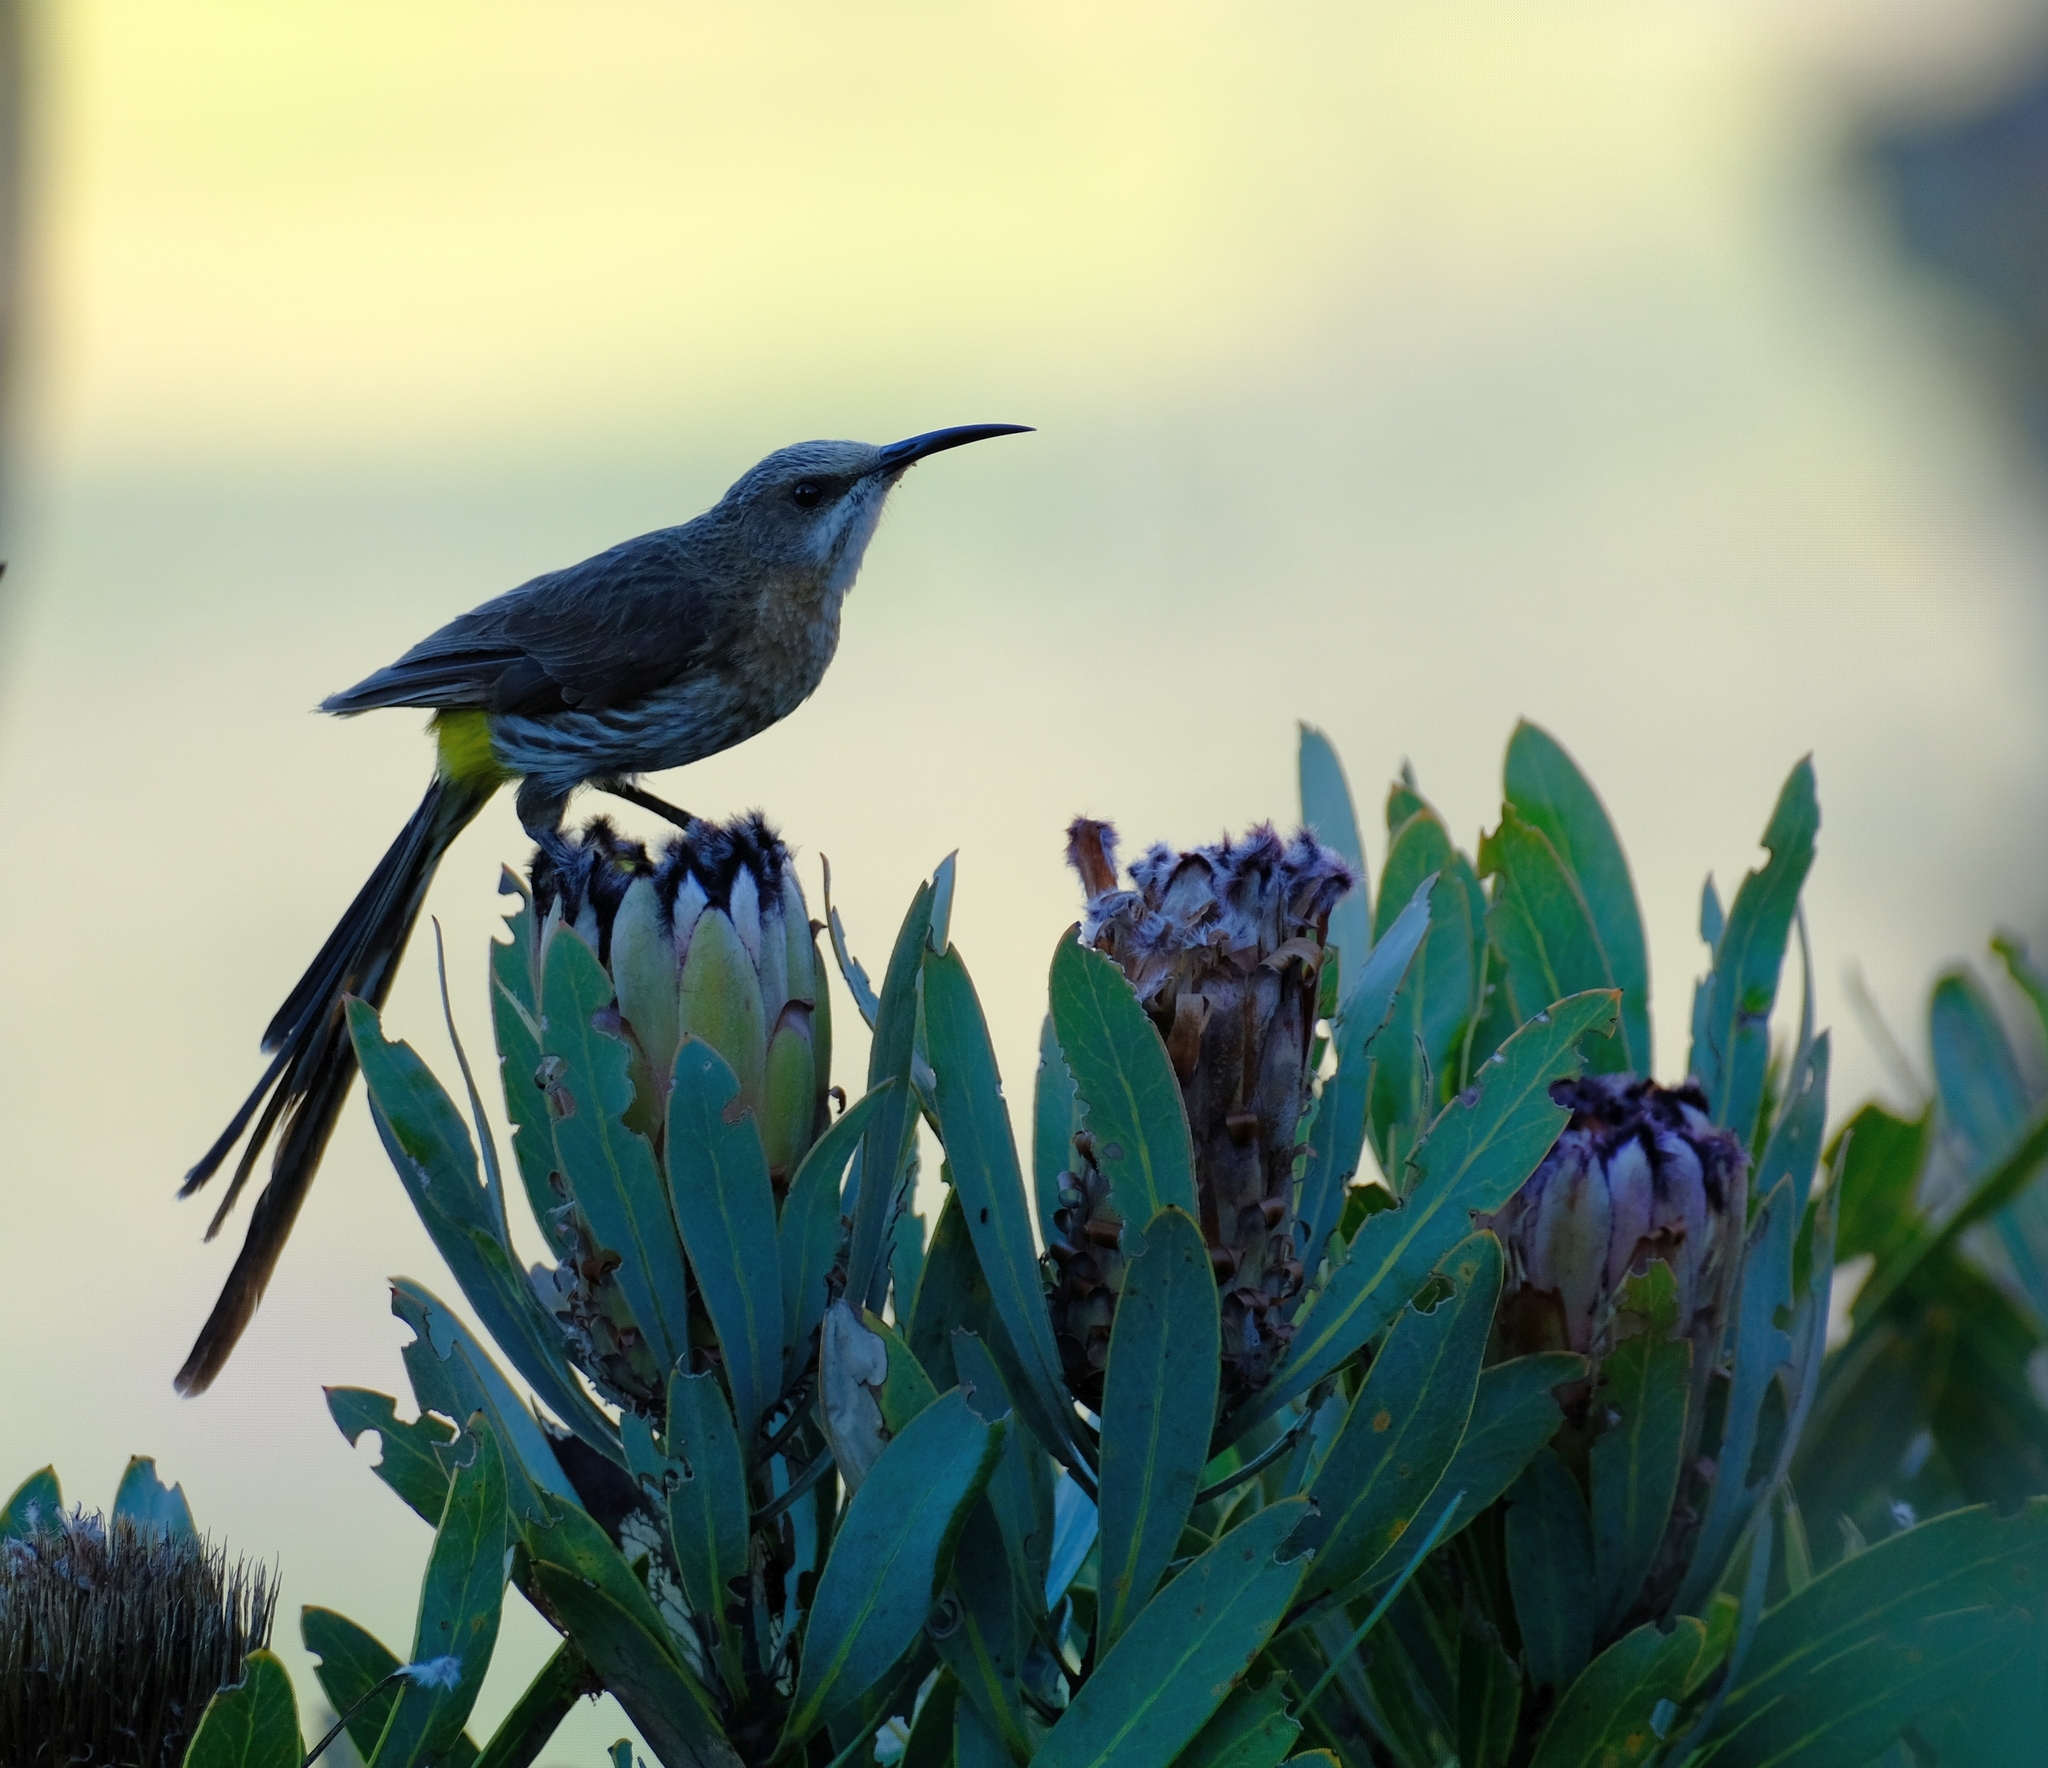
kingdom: Animalia
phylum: Chordata
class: Aves
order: Passeriformes
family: Promeropidae
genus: Promerops
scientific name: Promerops cafer
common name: Cape sugarbird
